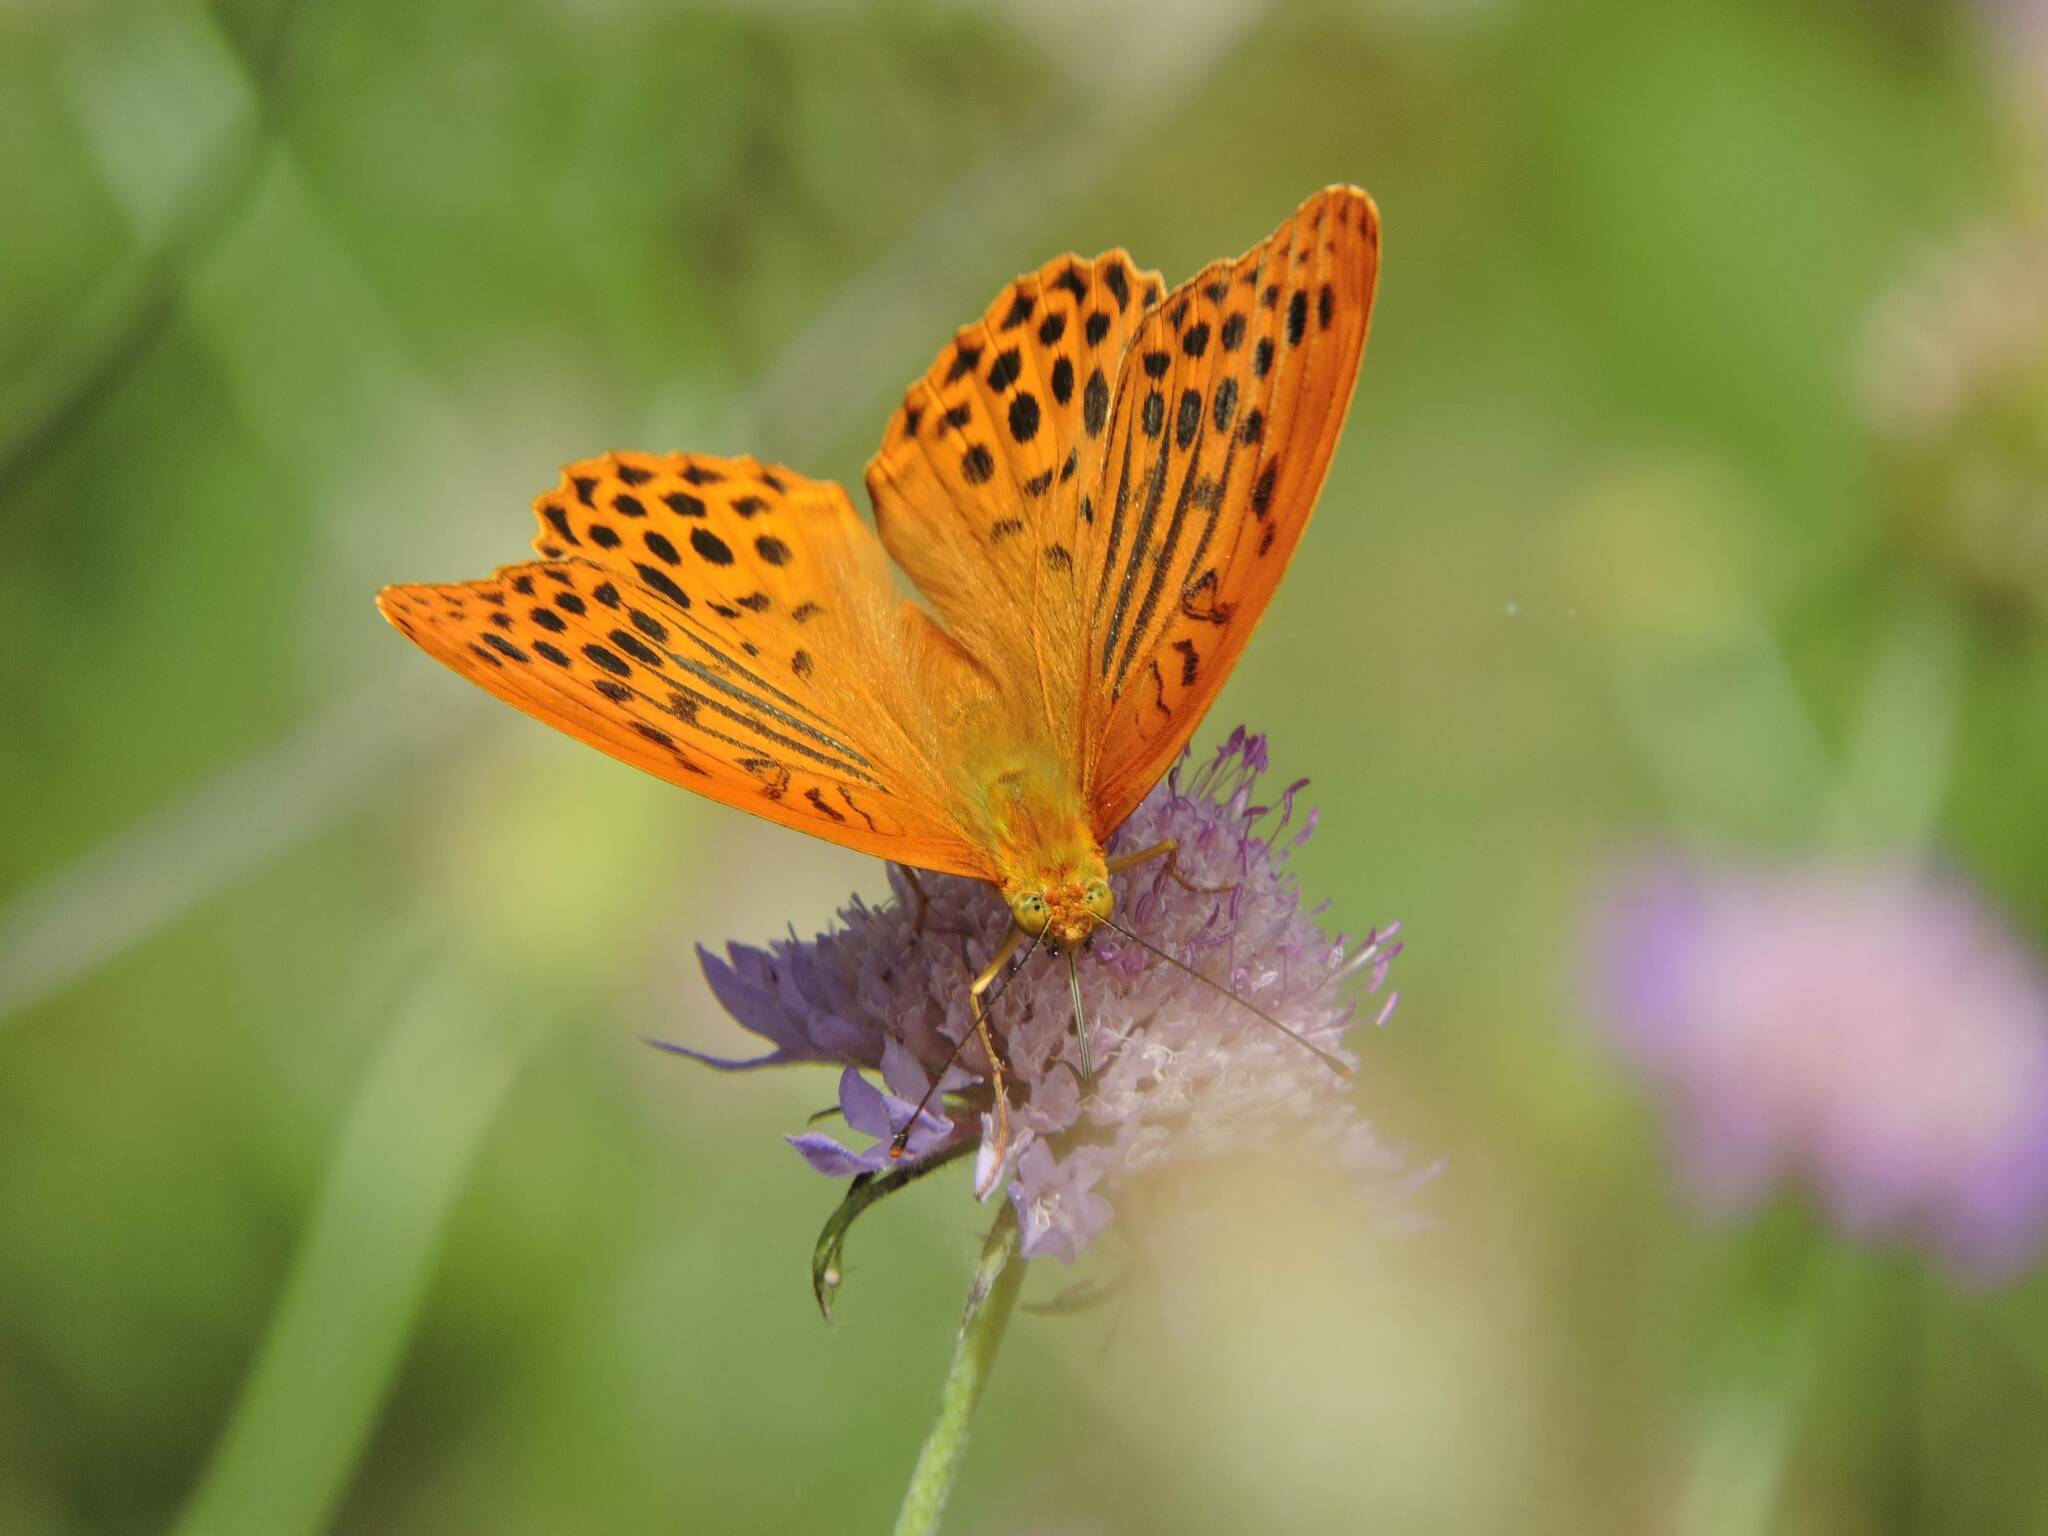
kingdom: Animalia
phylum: Arthropoda
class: Insecta
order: Lepidoptera
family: Nymphalidae
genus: Argynnis
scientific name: Argynnis paphia
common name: Silver-washed fritillary
